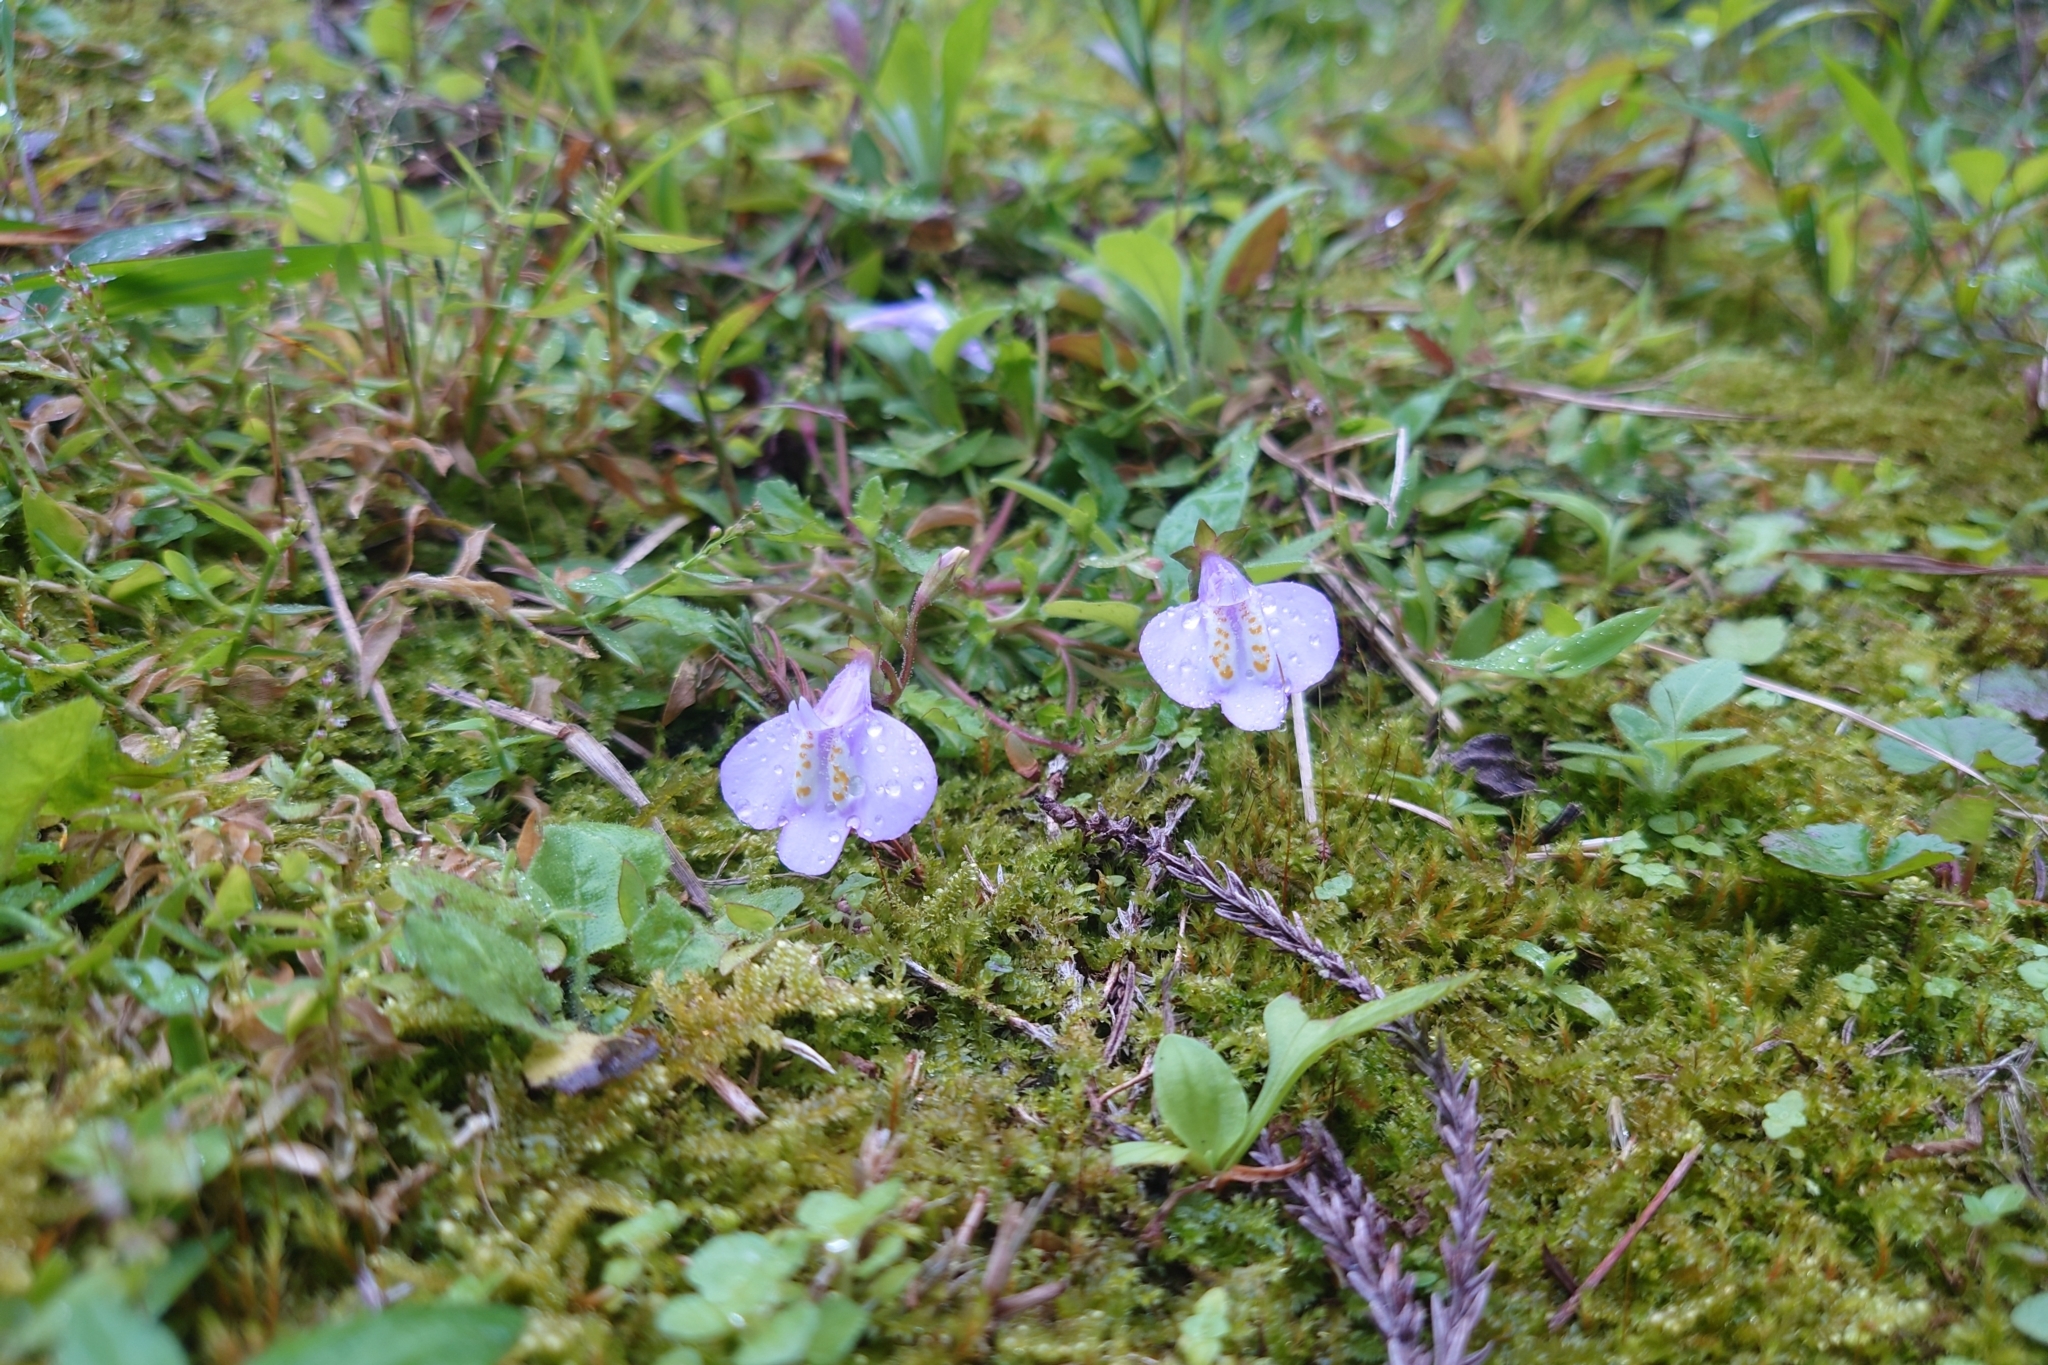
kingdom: Plantae
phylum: Tracheophyta
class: Magnoliopsida
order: Lamiales
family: Mazaceae
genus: Mazus
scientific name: Mazus fauriei
